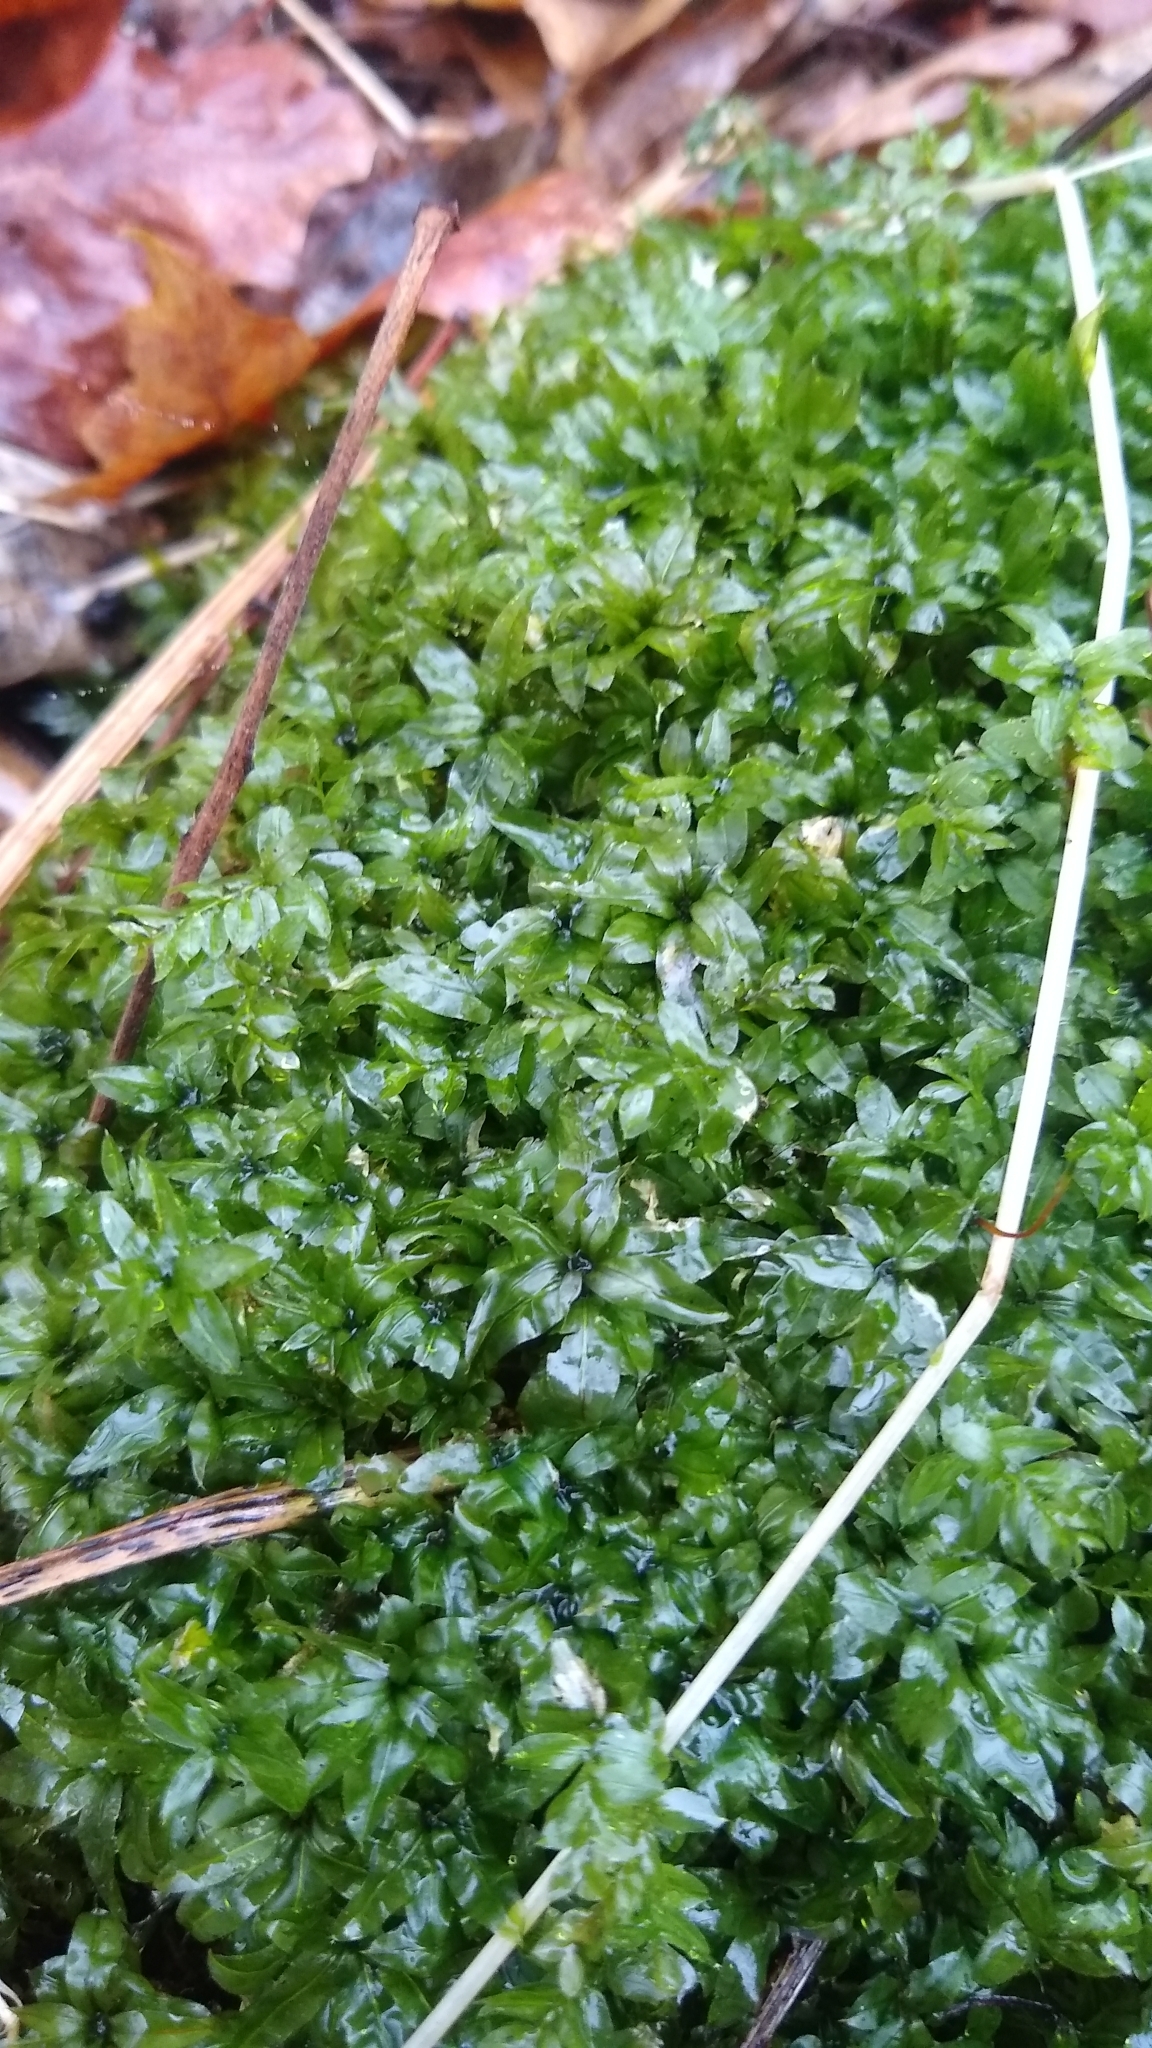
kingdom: Plantae
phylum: Bryophyta
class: Bryopsida
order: Bryales
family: Mniaceae
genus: Plagiomnium
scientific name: Plagiomnium ciliare
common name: Toothed leafy moss
